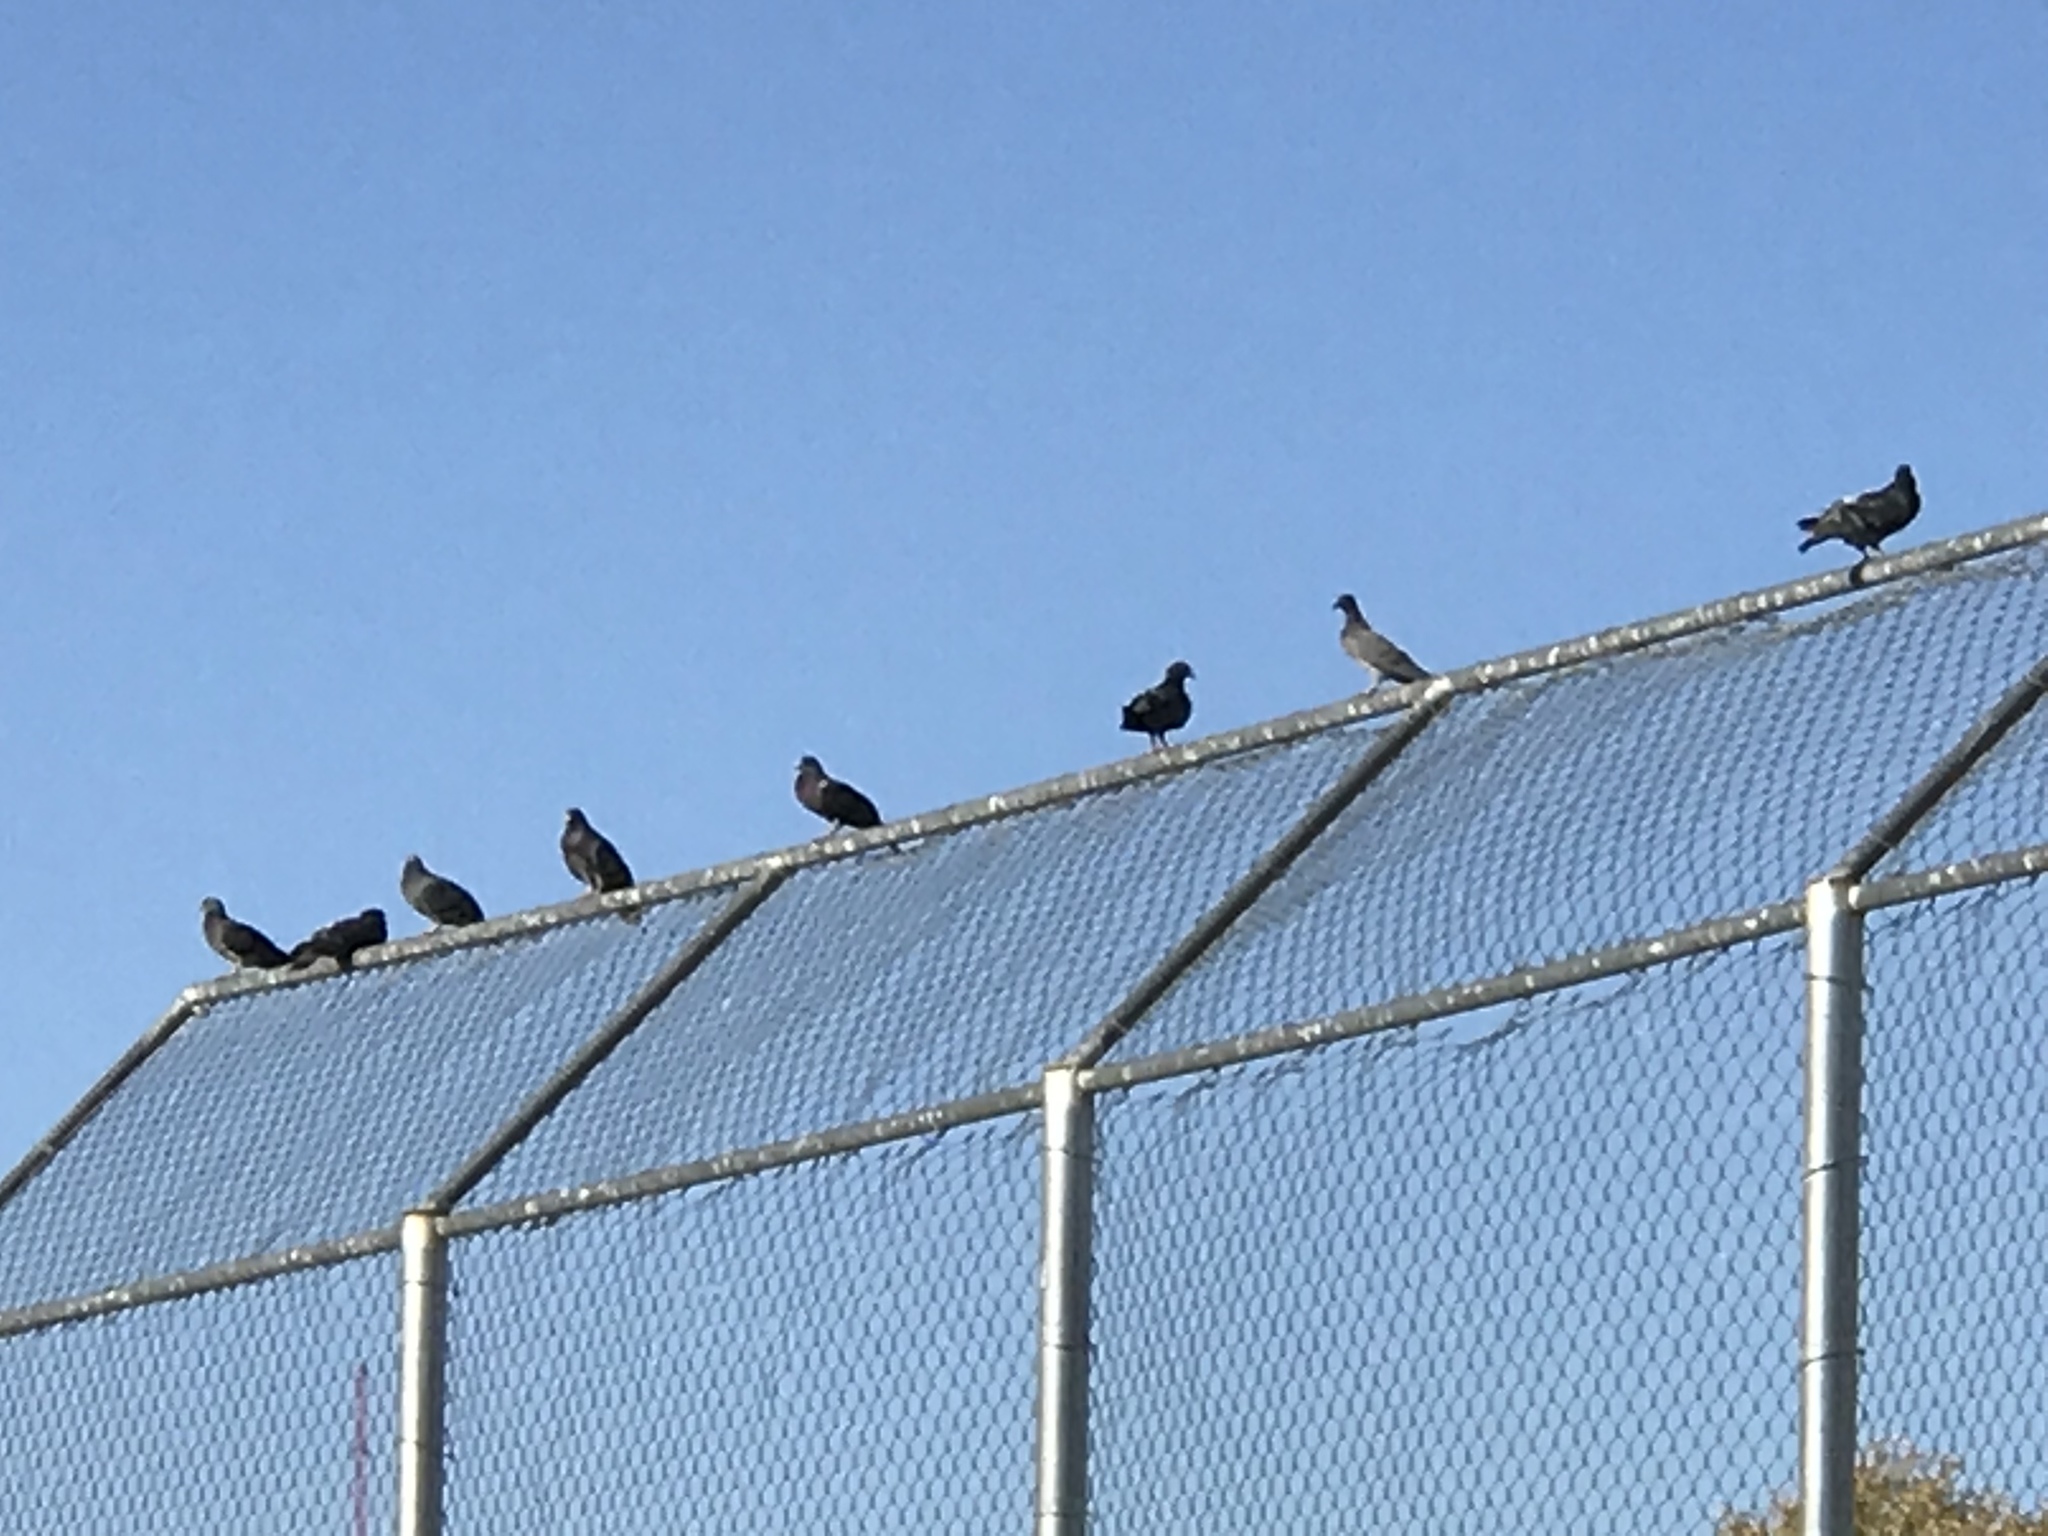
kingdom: Animalia
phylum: Chordata
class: Aves
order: Columbiformes
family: Columbidae
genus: Columba
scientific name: Columba livia
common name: Rock pigeon
